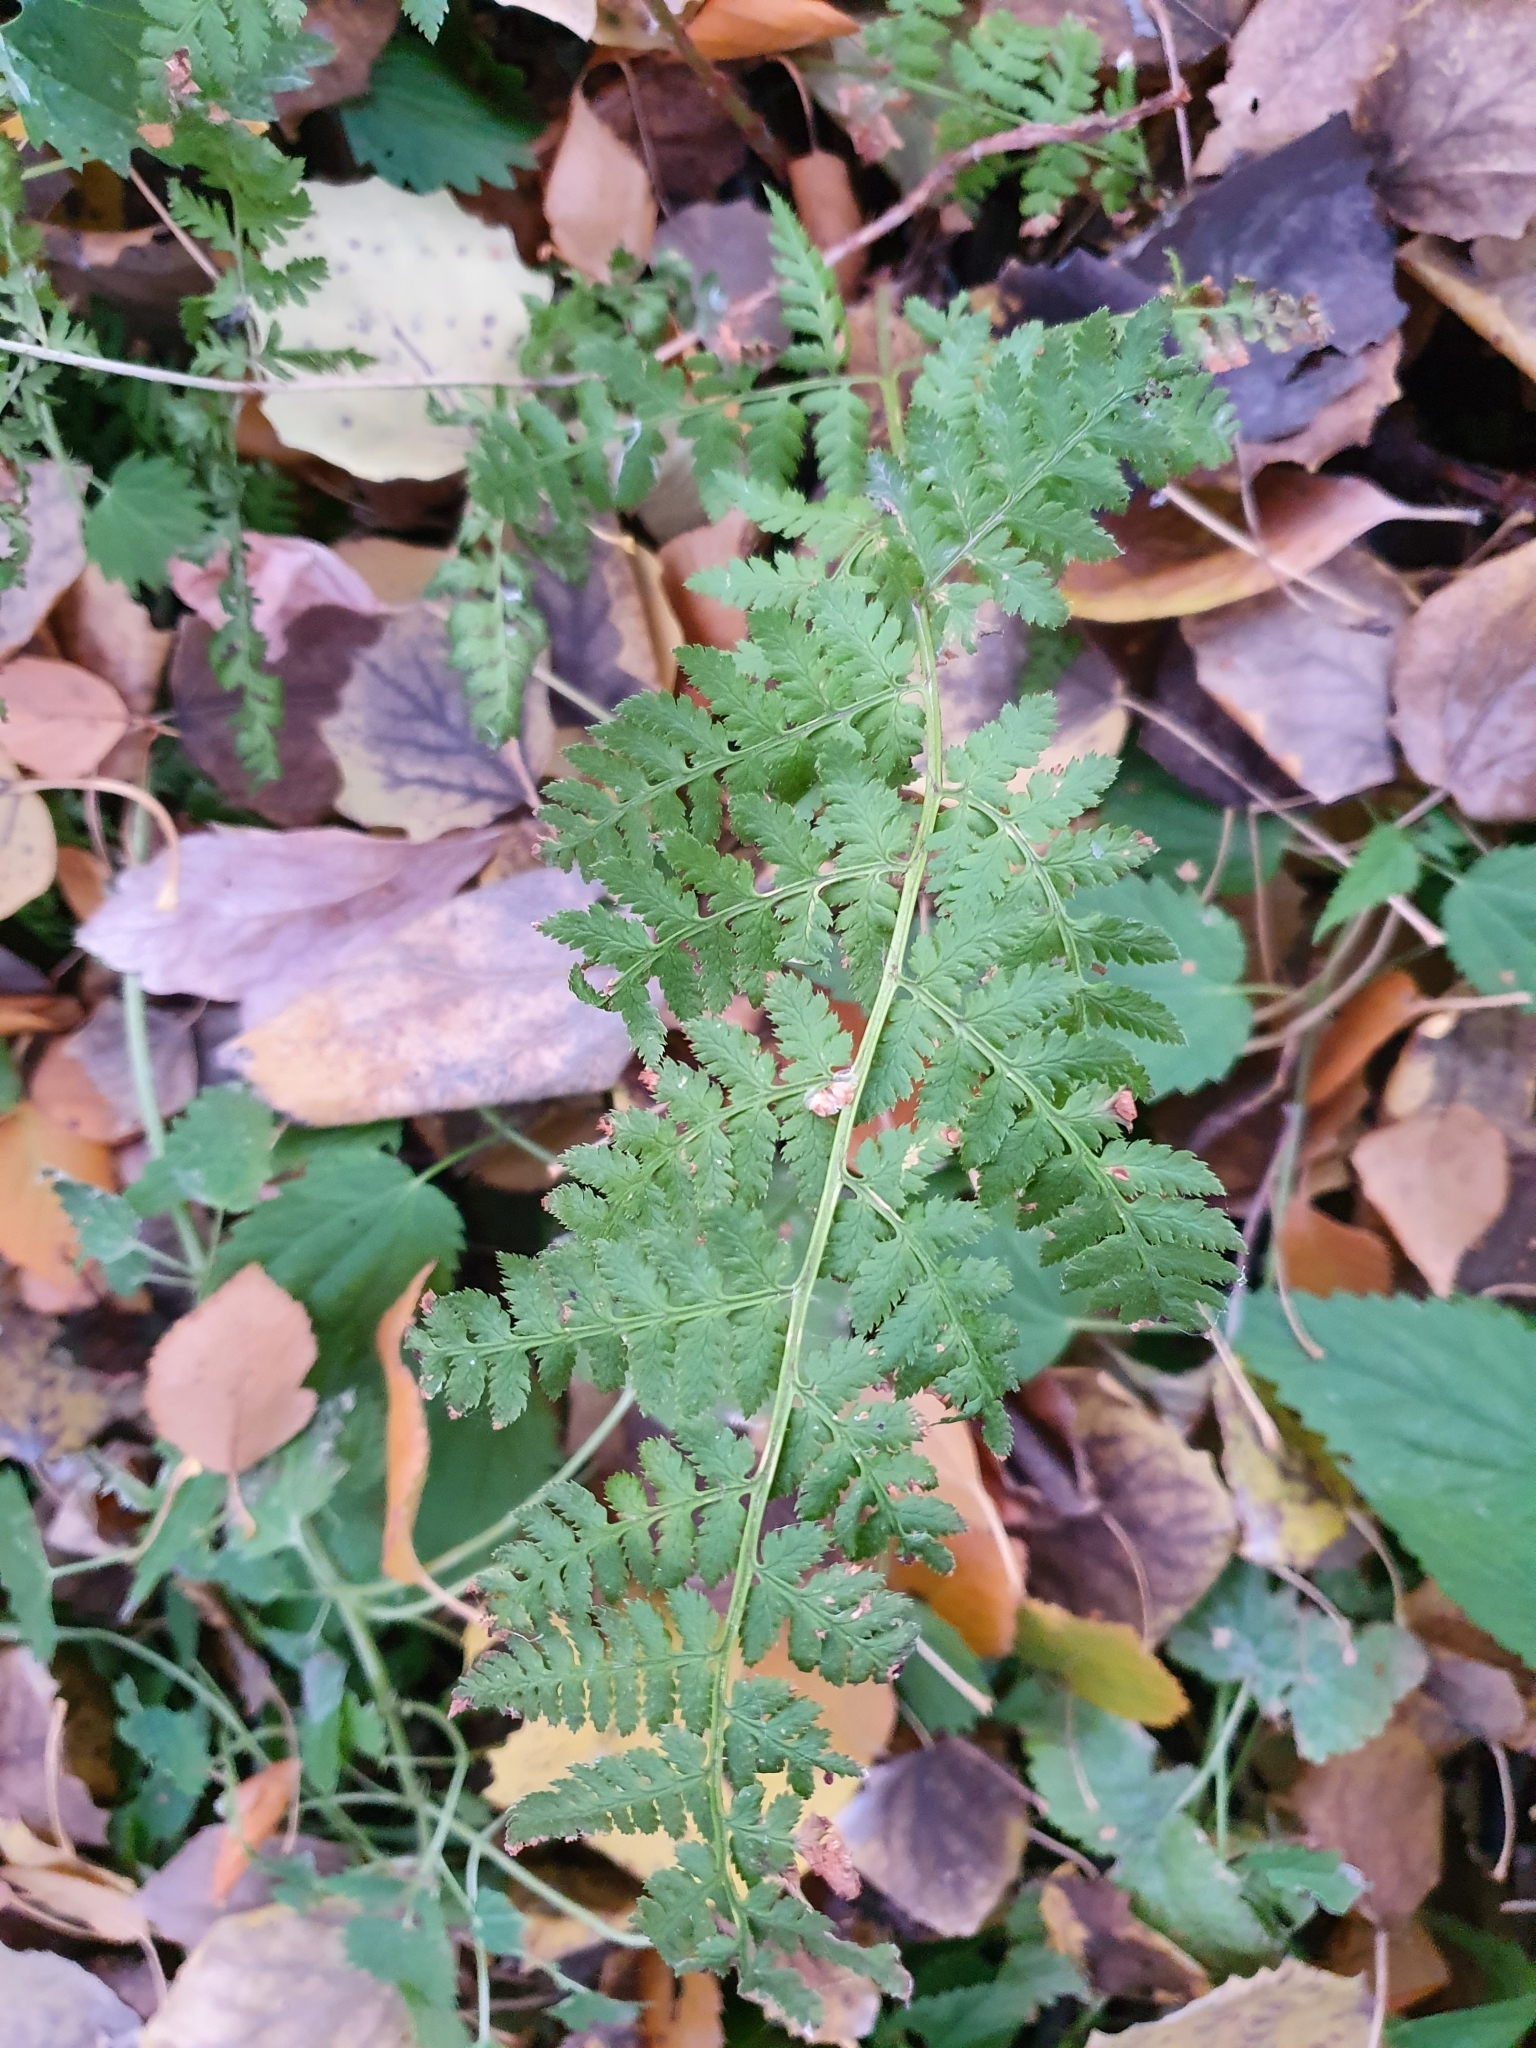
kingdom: Plantae
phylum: Tracheophyta
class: Polypodiopsida
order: Polypodiales
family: Dryopteridaceae
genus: Dryopteris
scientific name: Dryopteris carthusiana
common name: Narrow buckler-fern
